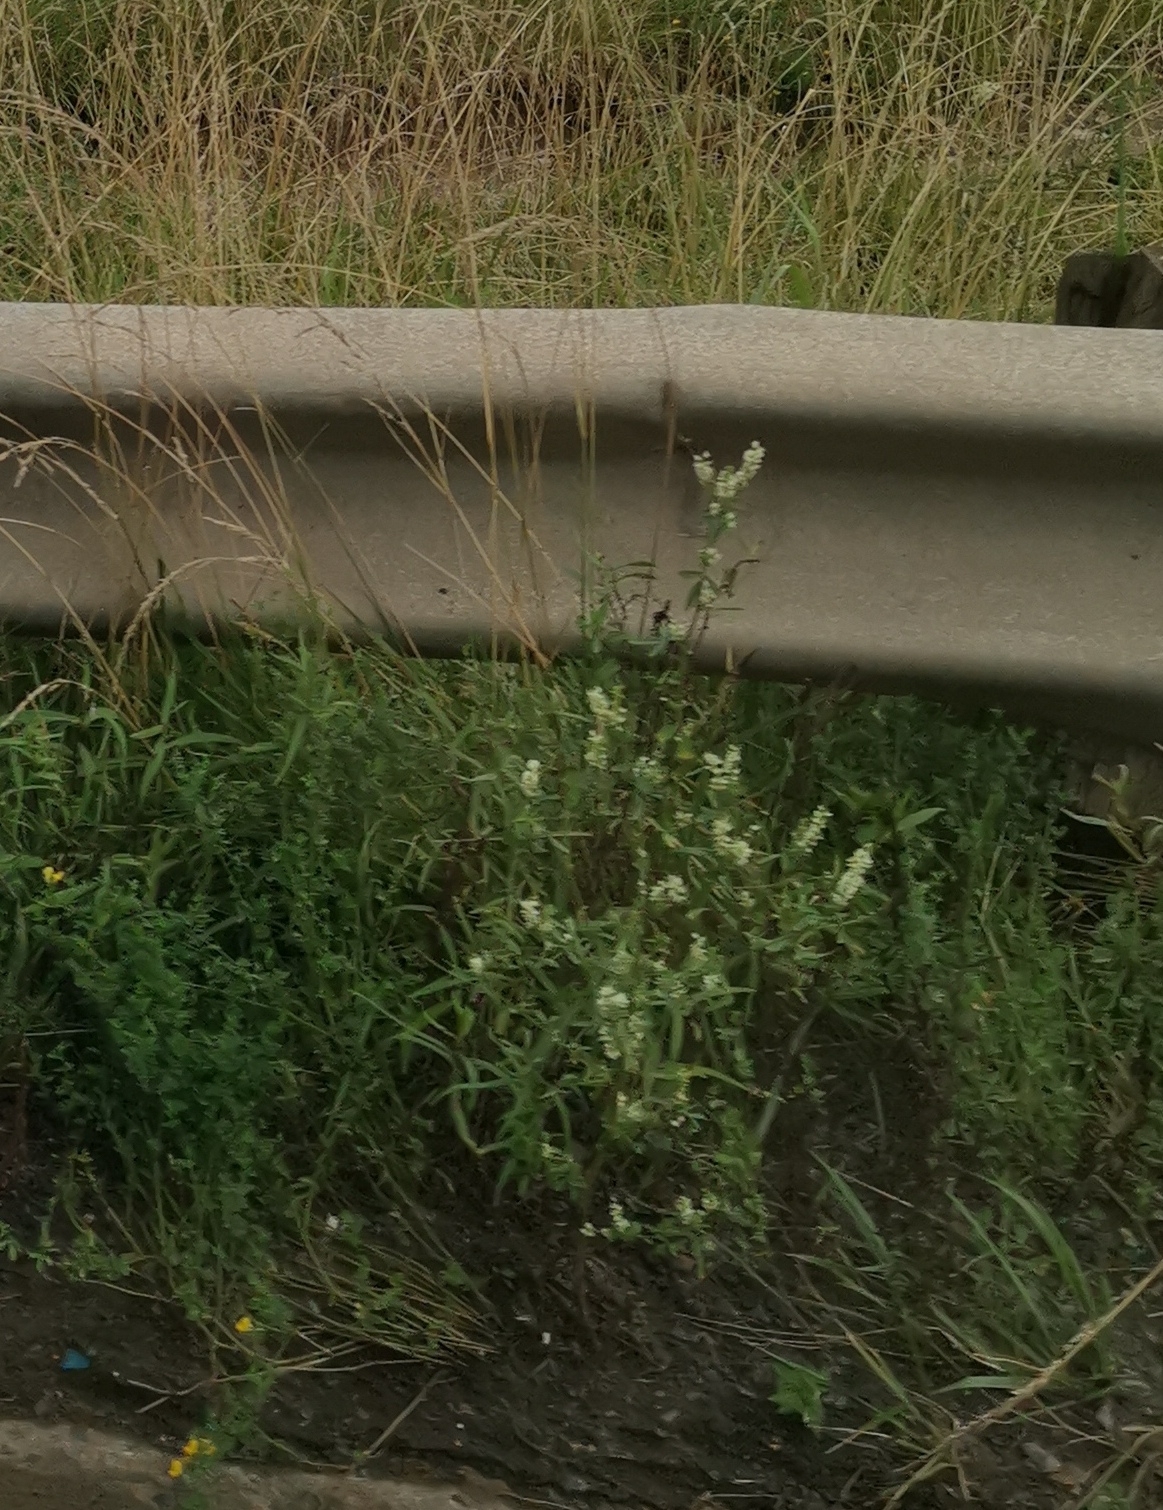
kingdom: Plantae
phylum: Tracheophyta
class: Magnoliopsida
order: Fabales
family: Fabaceae
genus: Melilotus
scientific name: Melilotus albus
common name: White melilot
